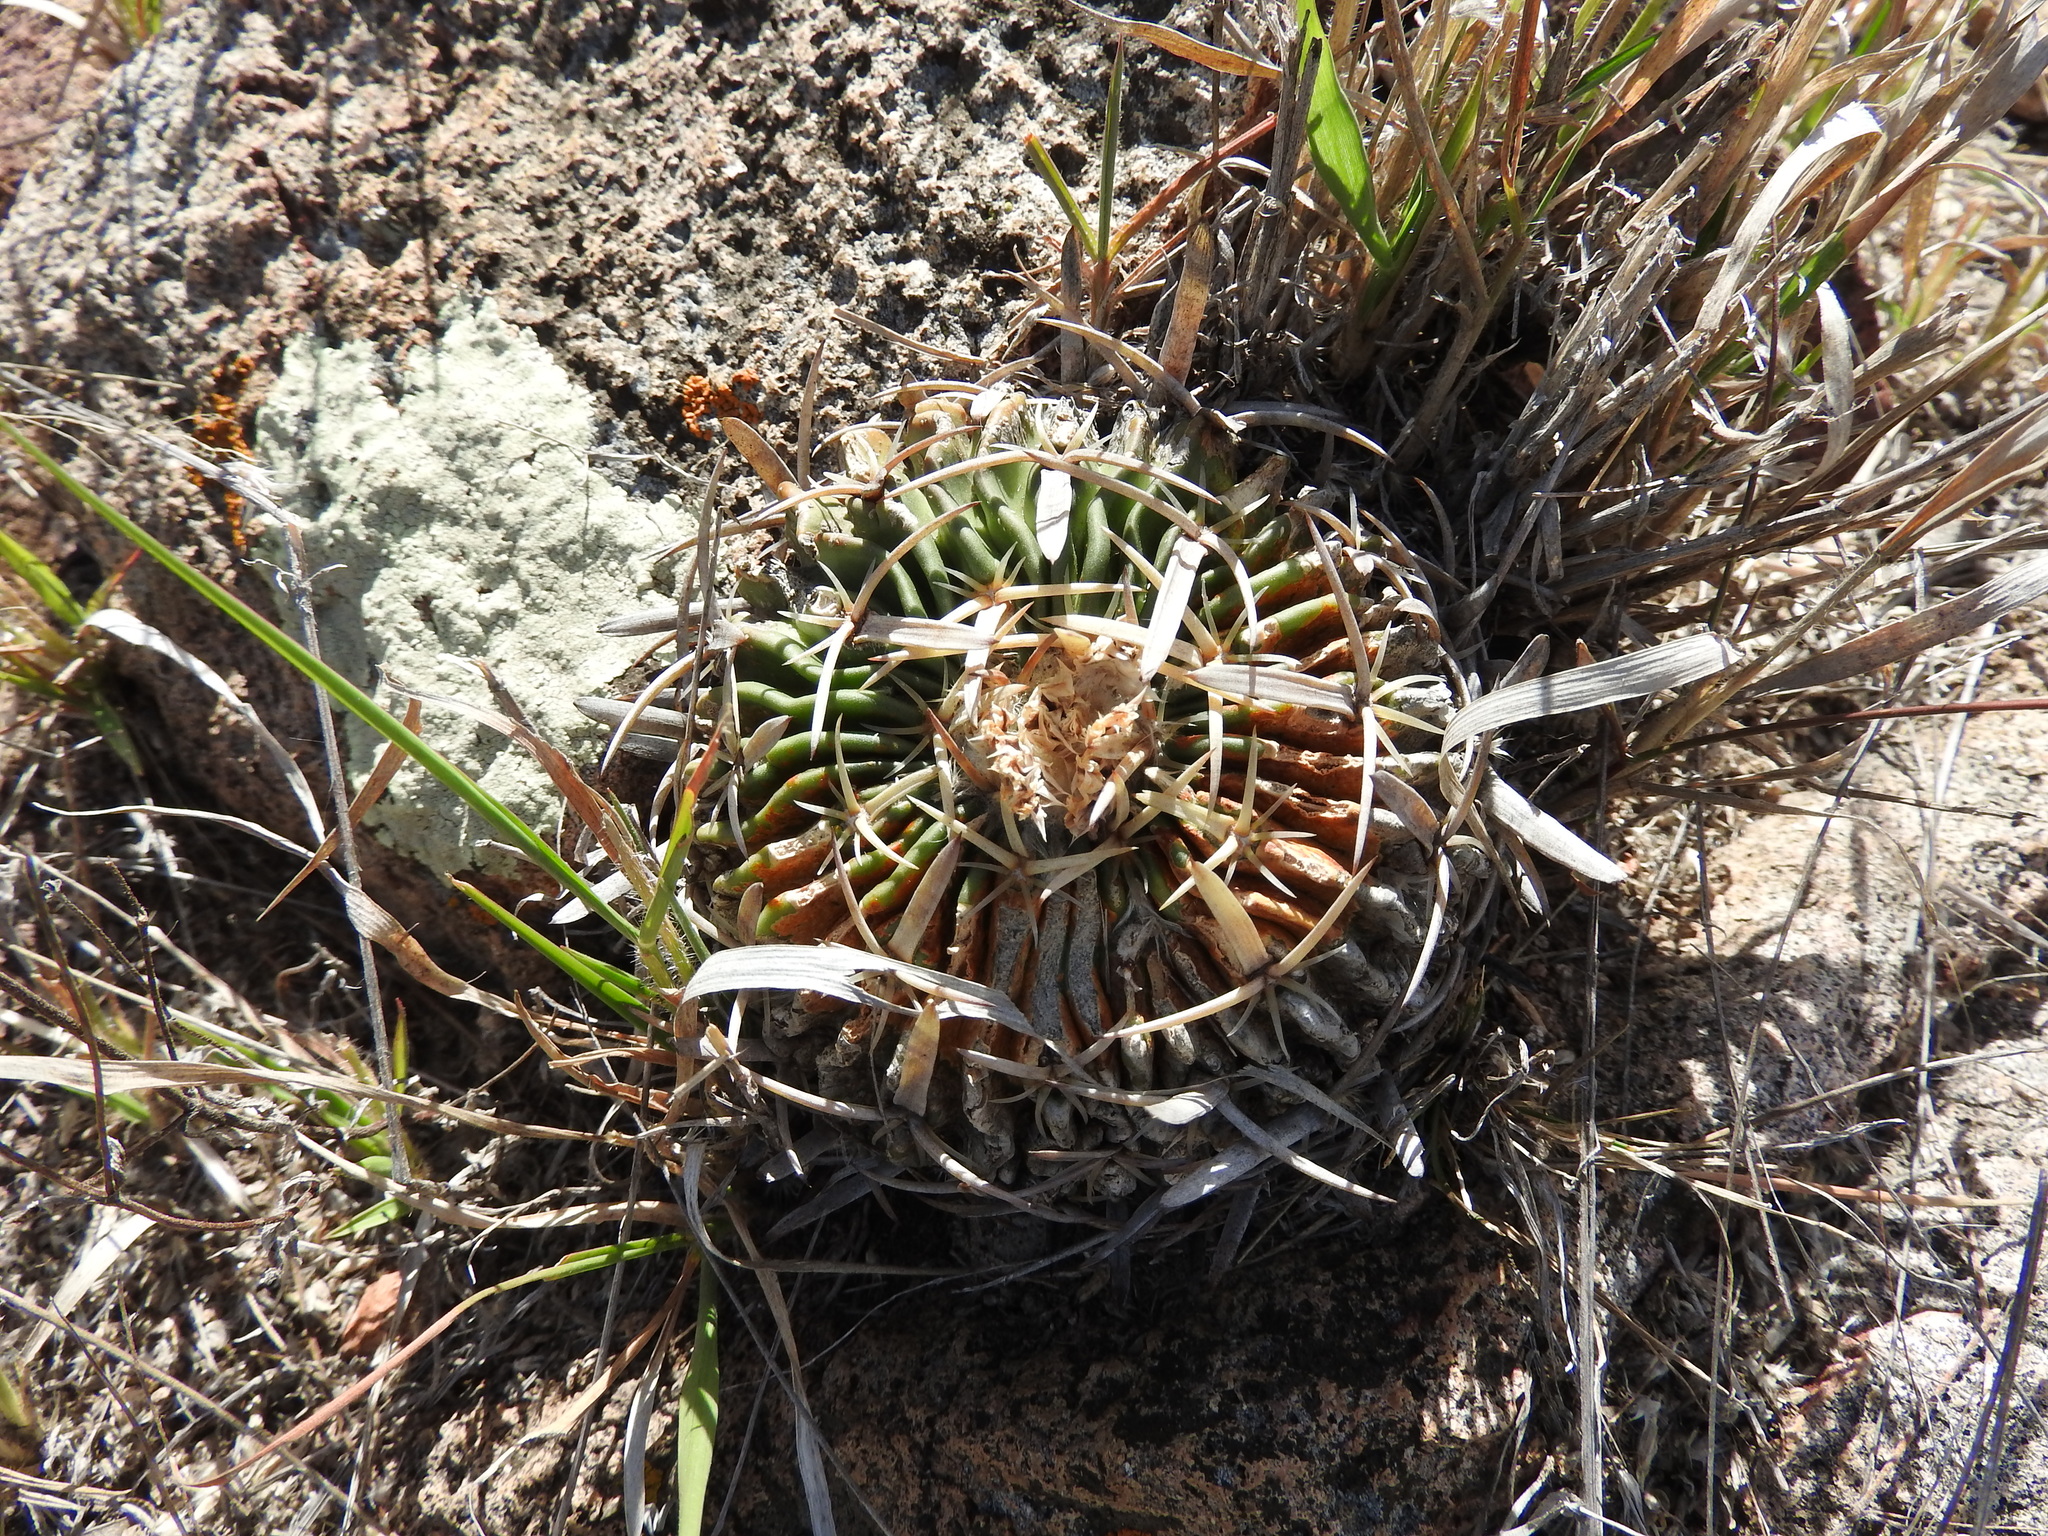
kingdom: Plantae
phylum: Tracheophyta
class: Magnoliopsida
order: Caryophyllales
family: Cactaceae
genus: Stenocactus
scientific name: Stenocactus obvallatus
